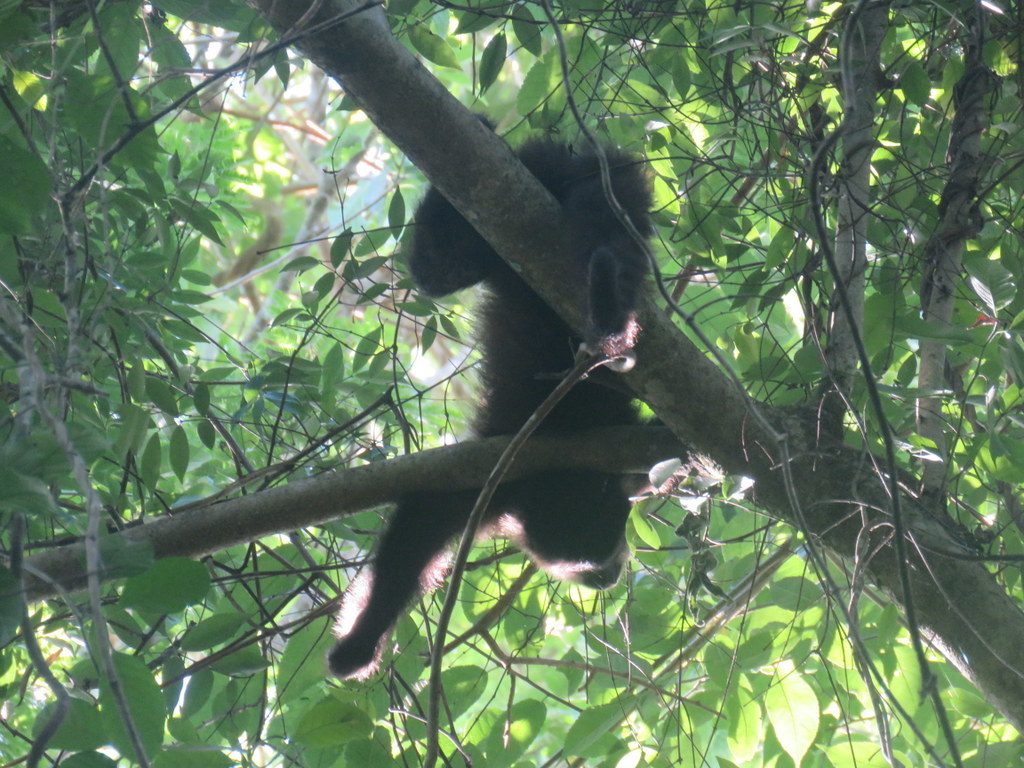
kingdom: Animalia
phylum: Chordata
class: Mammalia
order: Primates
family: Cebidae
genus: Sapajus
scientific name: Sapajus nigritus
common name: Black capuchin
